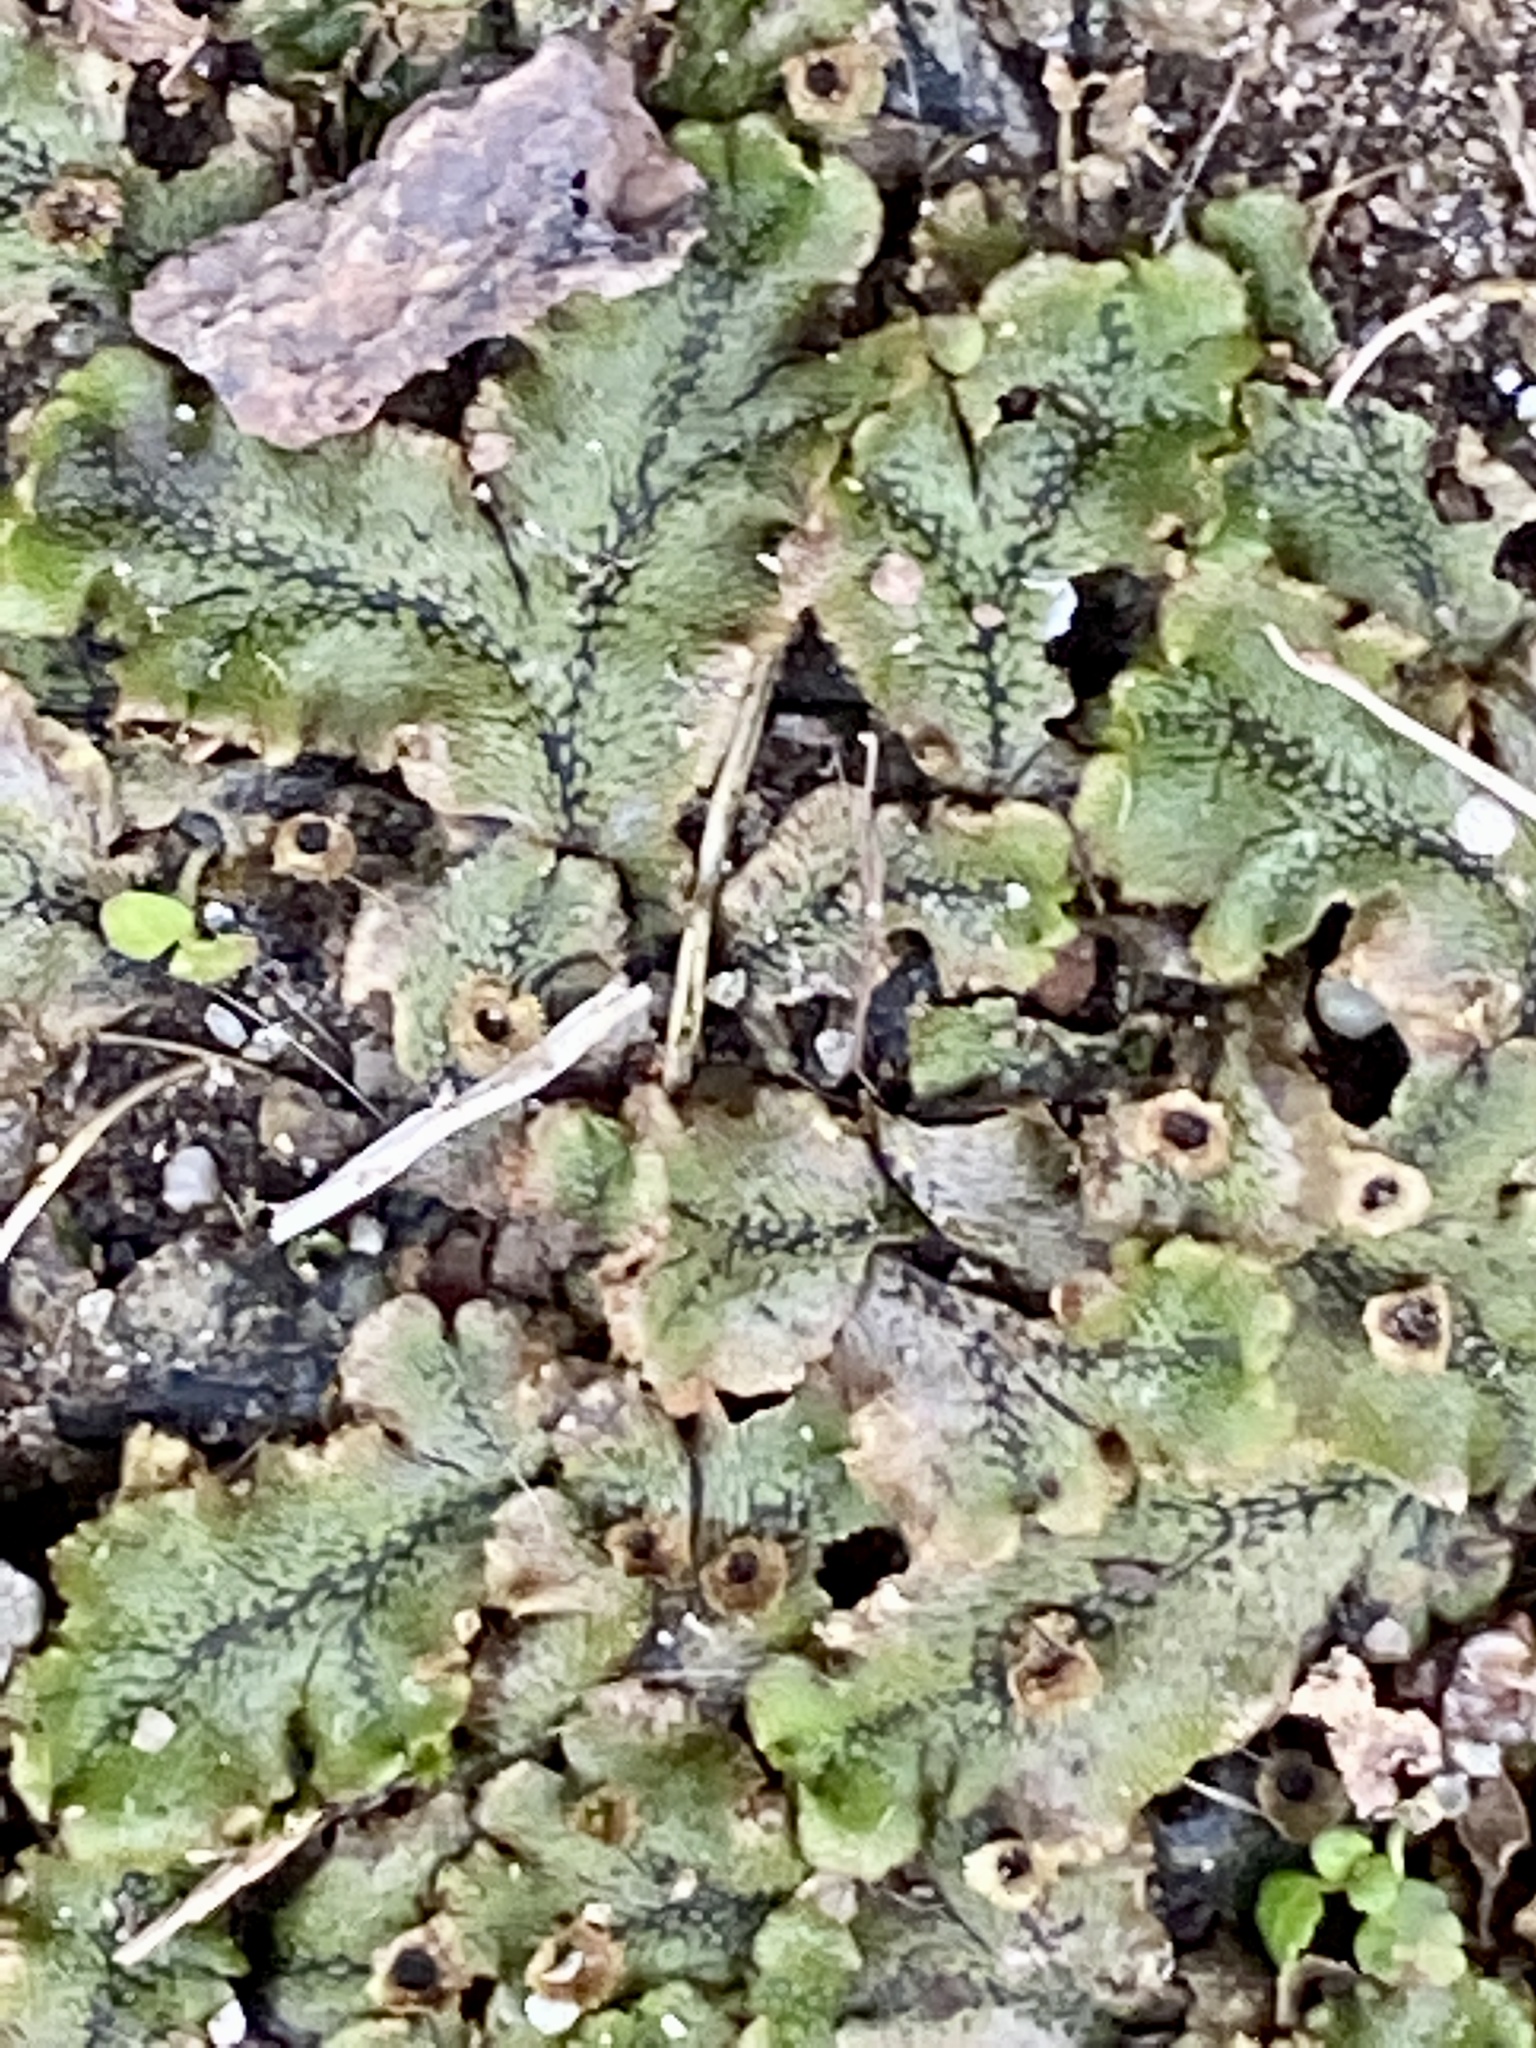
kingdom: Plantae
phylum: Marchantiophyta
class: Marchantiopsida
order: Marchantiales
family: Marchantiaceae
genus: Marchantia
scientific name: Marchantia polymorpha
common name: Common liverwort
